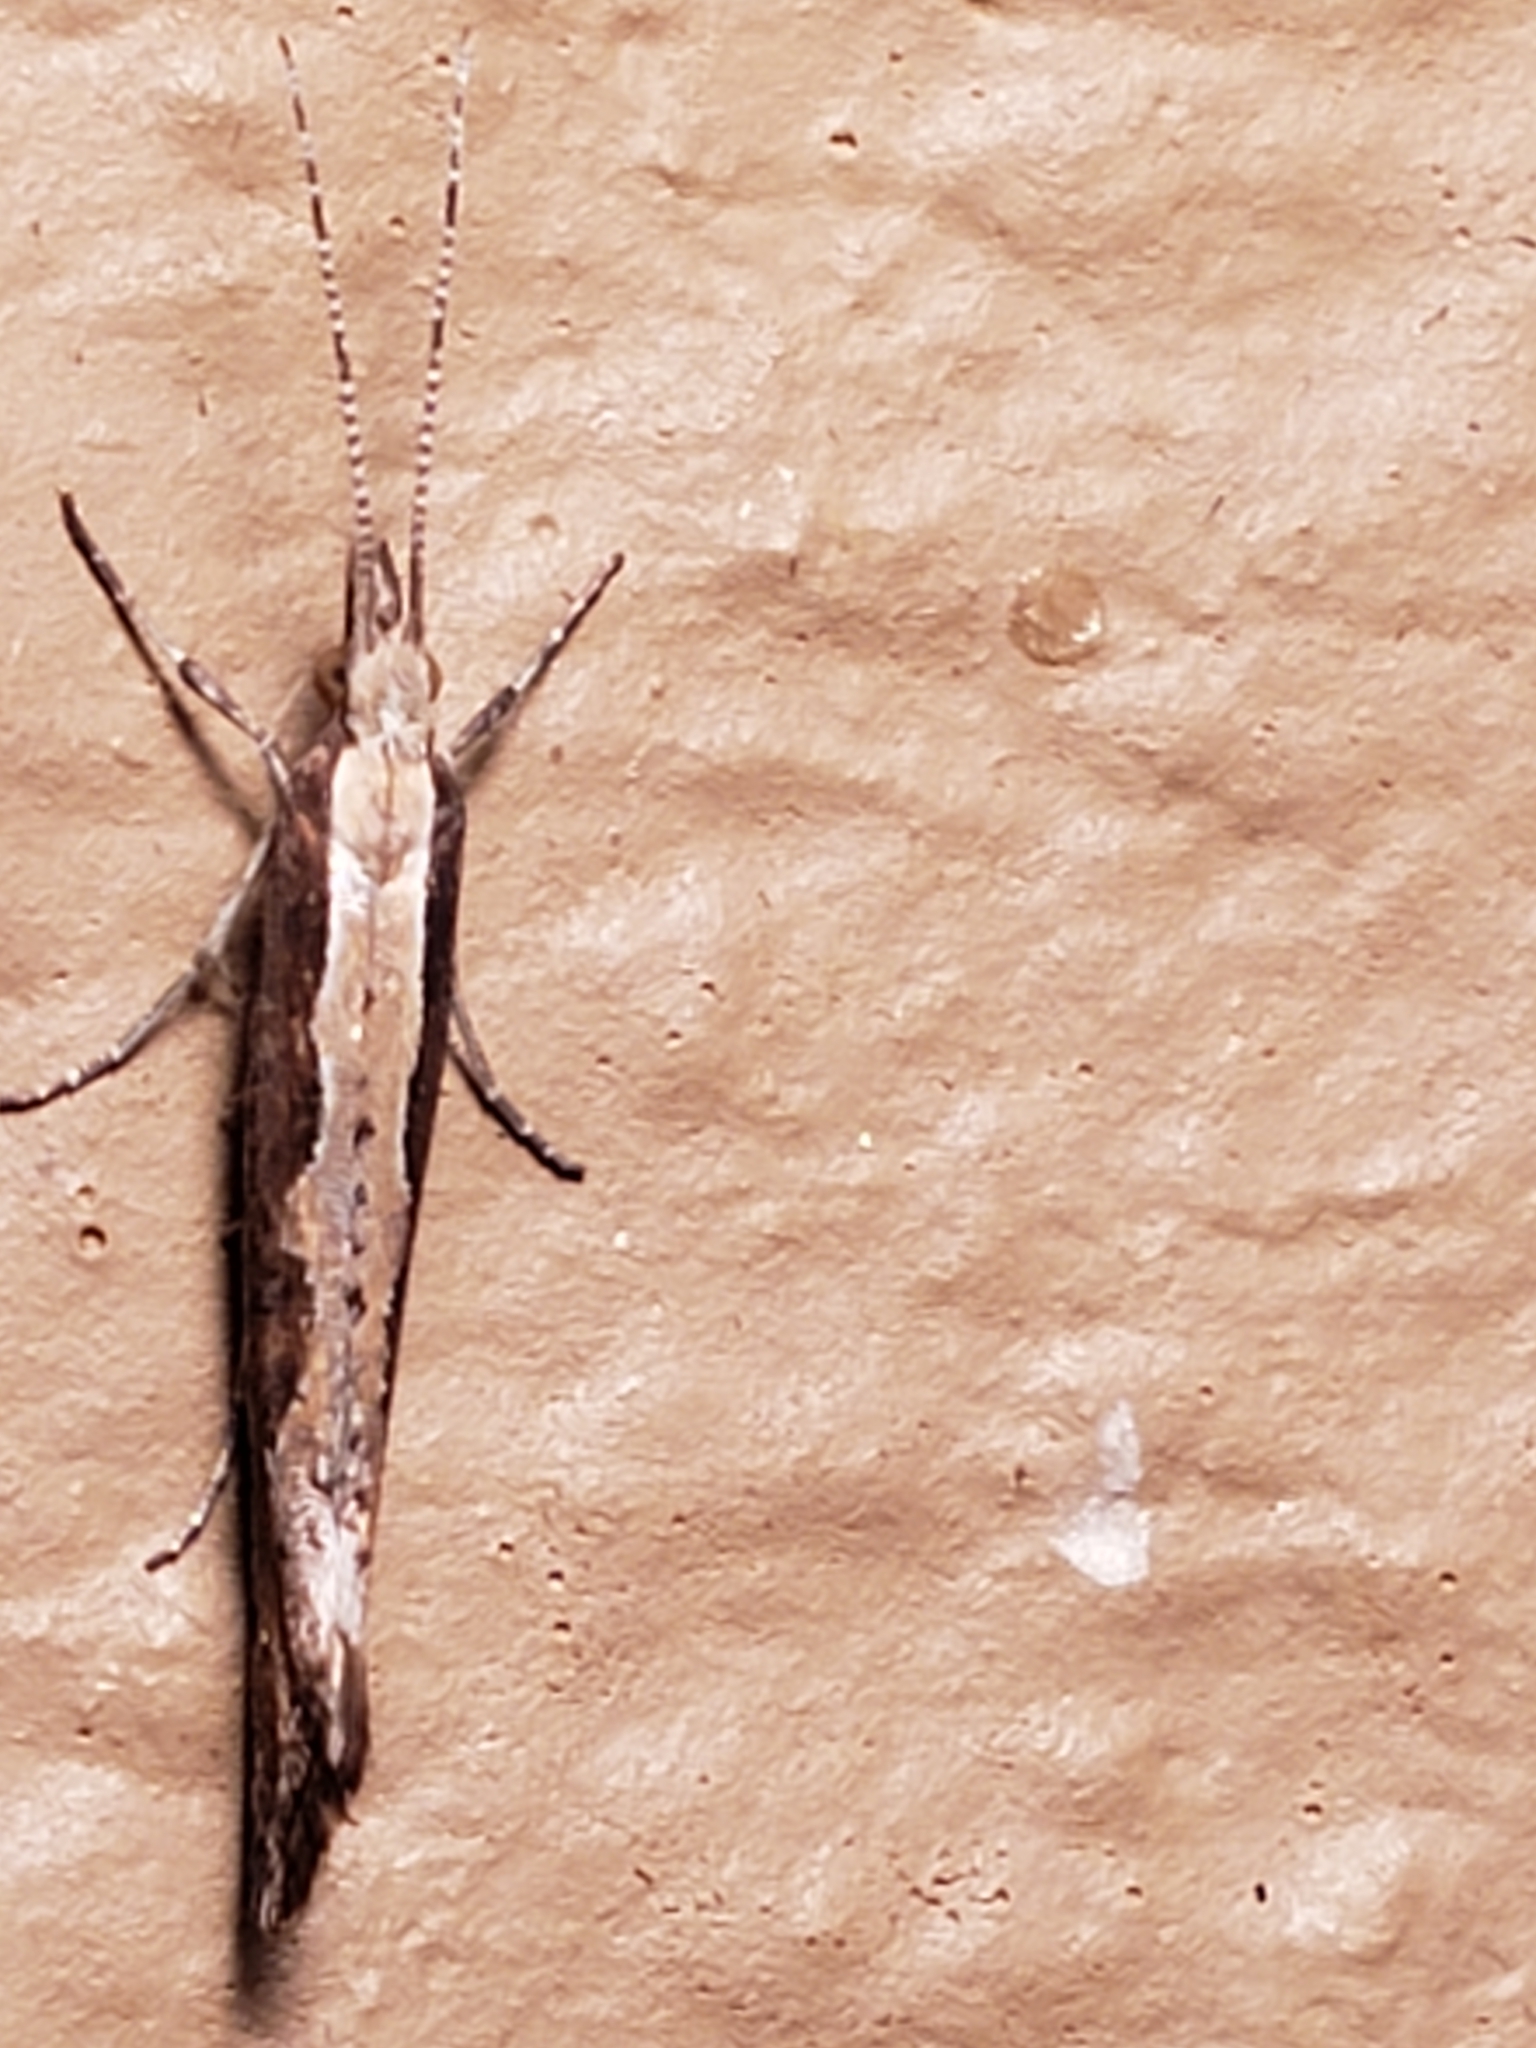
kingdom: Animalia
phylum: Arthropoda
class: Insecta
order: Lepidoptera
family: Plutellidae
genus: Plutella
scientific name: Plutella xylostella
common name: Diamond-back moth
